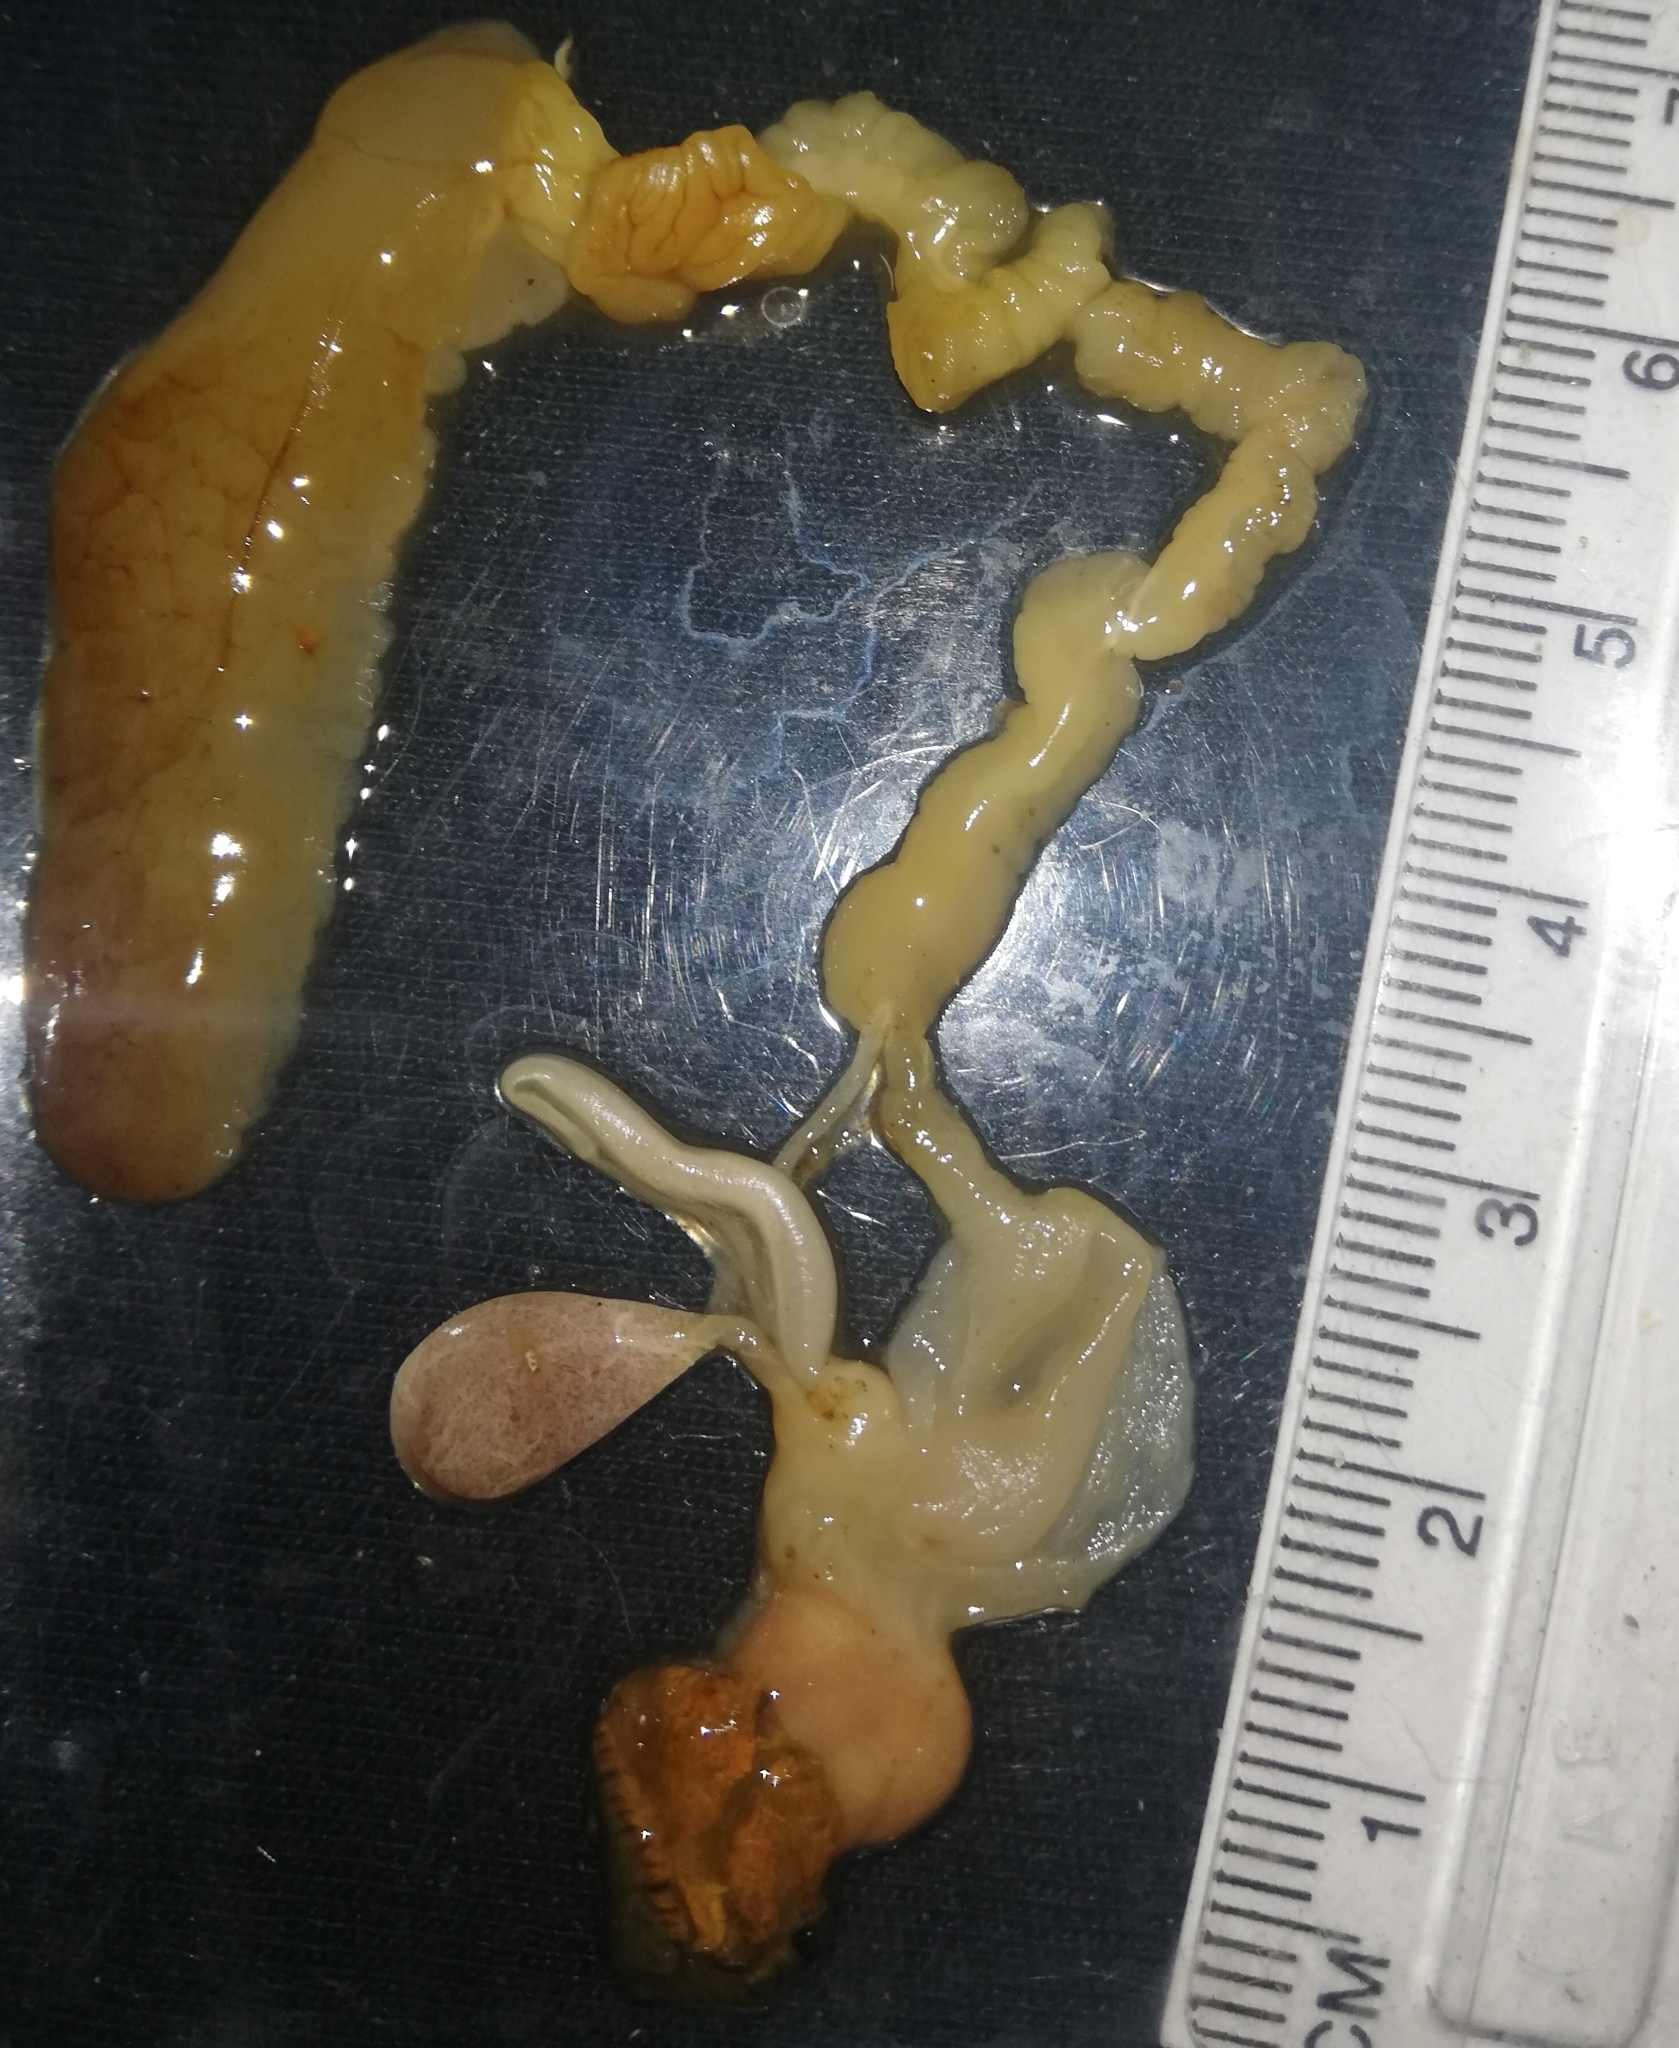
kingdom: Animalia
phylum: Mollusca
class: Gastropoda
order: Stylommatophora
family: Arionidae
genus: Arion
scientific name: Arion vulgaris
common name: Lusitanian slug
